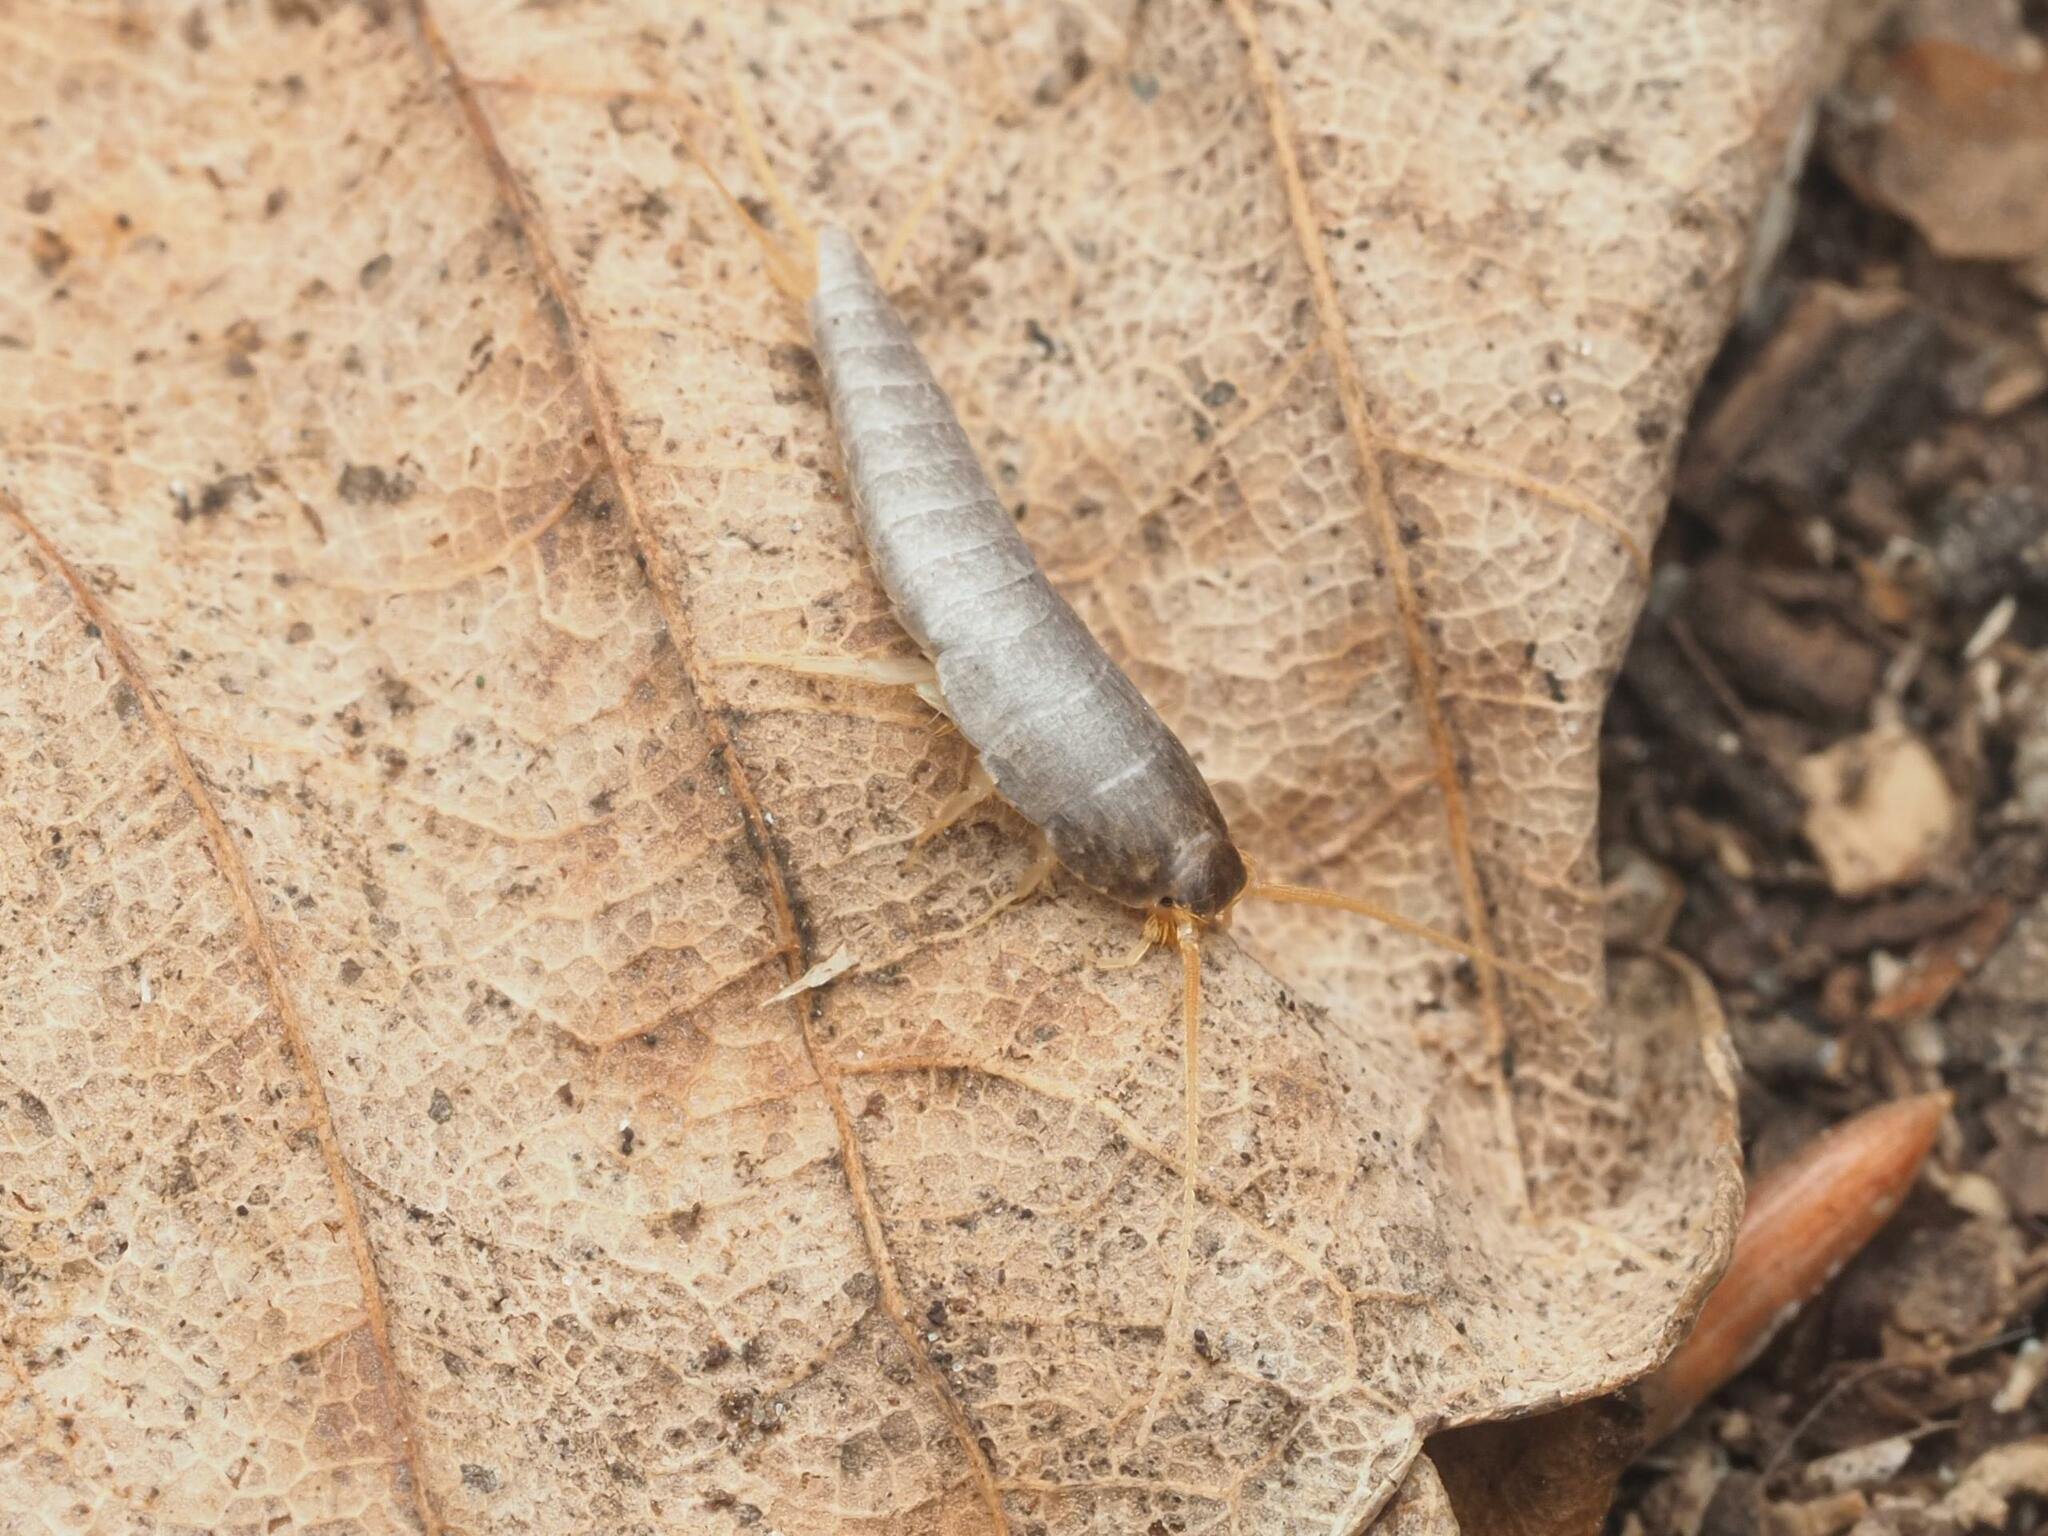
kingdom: Animalia
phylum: Arthropoda
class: Insecta
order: Zygentoma
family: Lepismatidae
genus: Lepisma
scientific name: Lepisma saccharinum
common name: Silverfish
